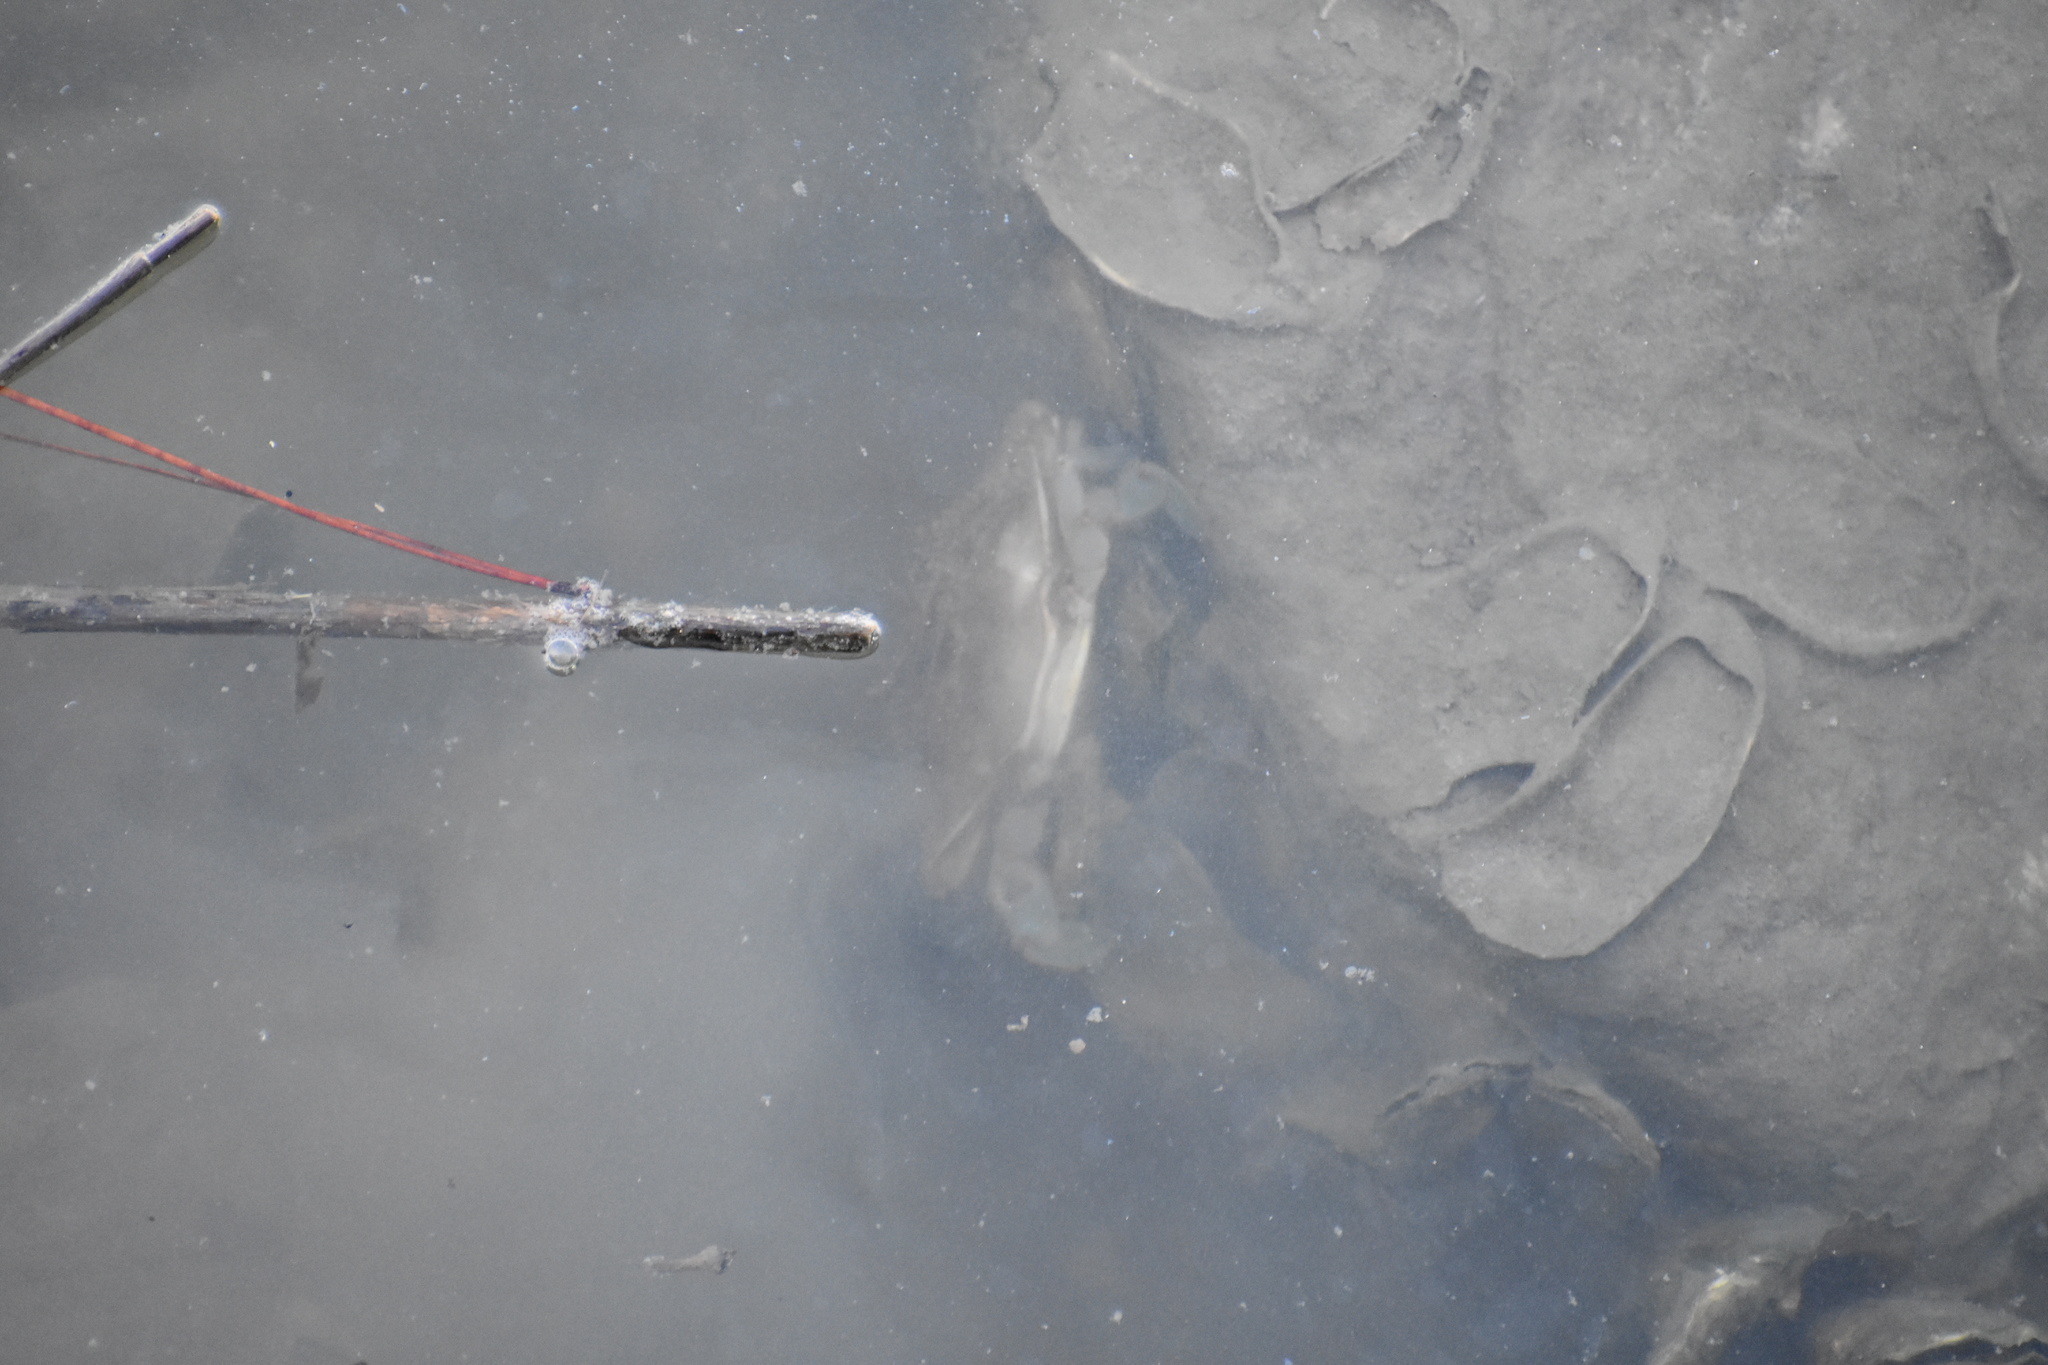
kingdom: Animalia
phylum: Arthropoda
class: Malacostraca
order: Decapoda
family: Portunidae
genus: Callinectes
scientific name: Callinectes sapidus
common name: Blue crab
